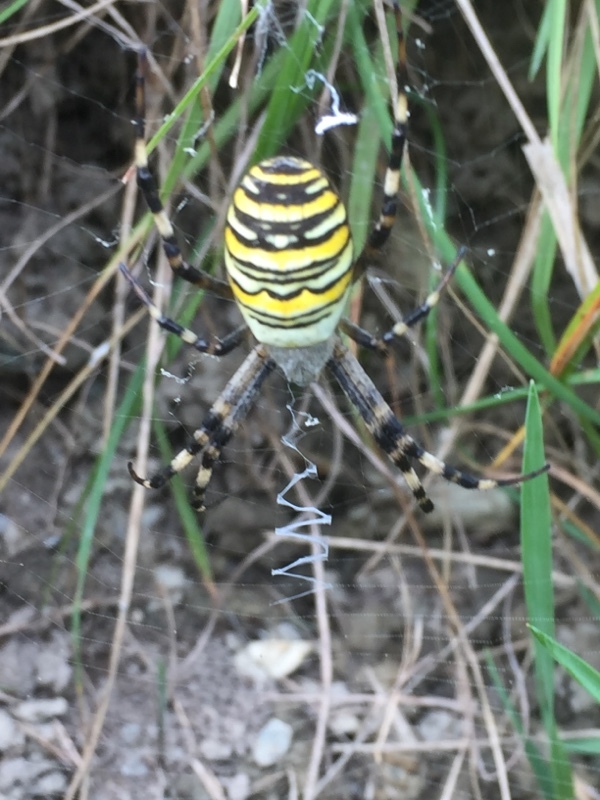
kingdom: Animalia
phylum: Arthropoda
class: Arachnida
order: Araneae
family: Araneidae
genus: Argiope
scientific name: Argiope bruennichi
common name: Wasp spider
